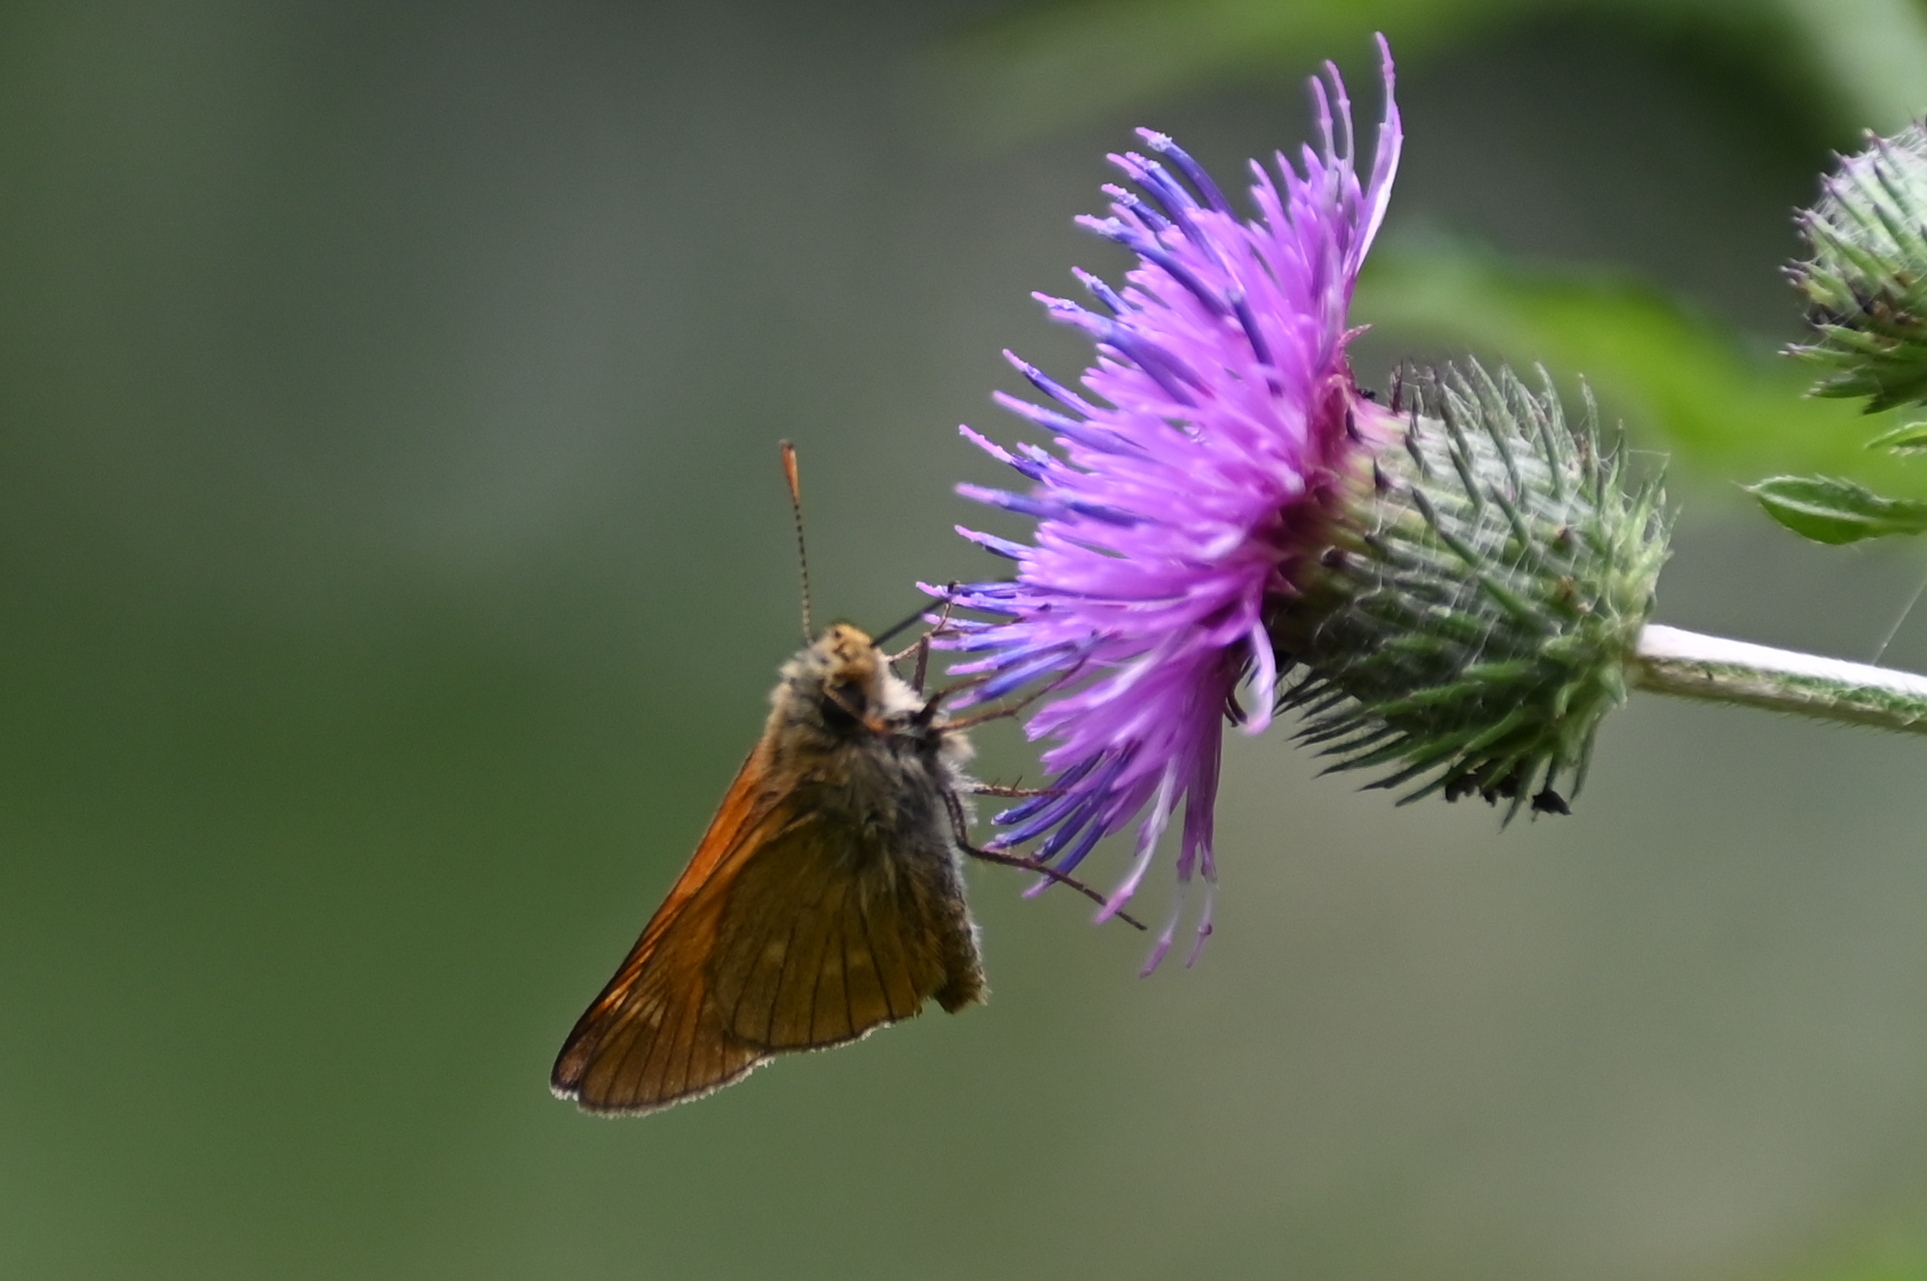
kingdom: Animalia
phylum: Arthropoda
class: Insecta
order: Lepidoptera
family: Hesperiidae
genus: Ochlodes
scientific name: Ochlodes venata
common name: Large skipper
